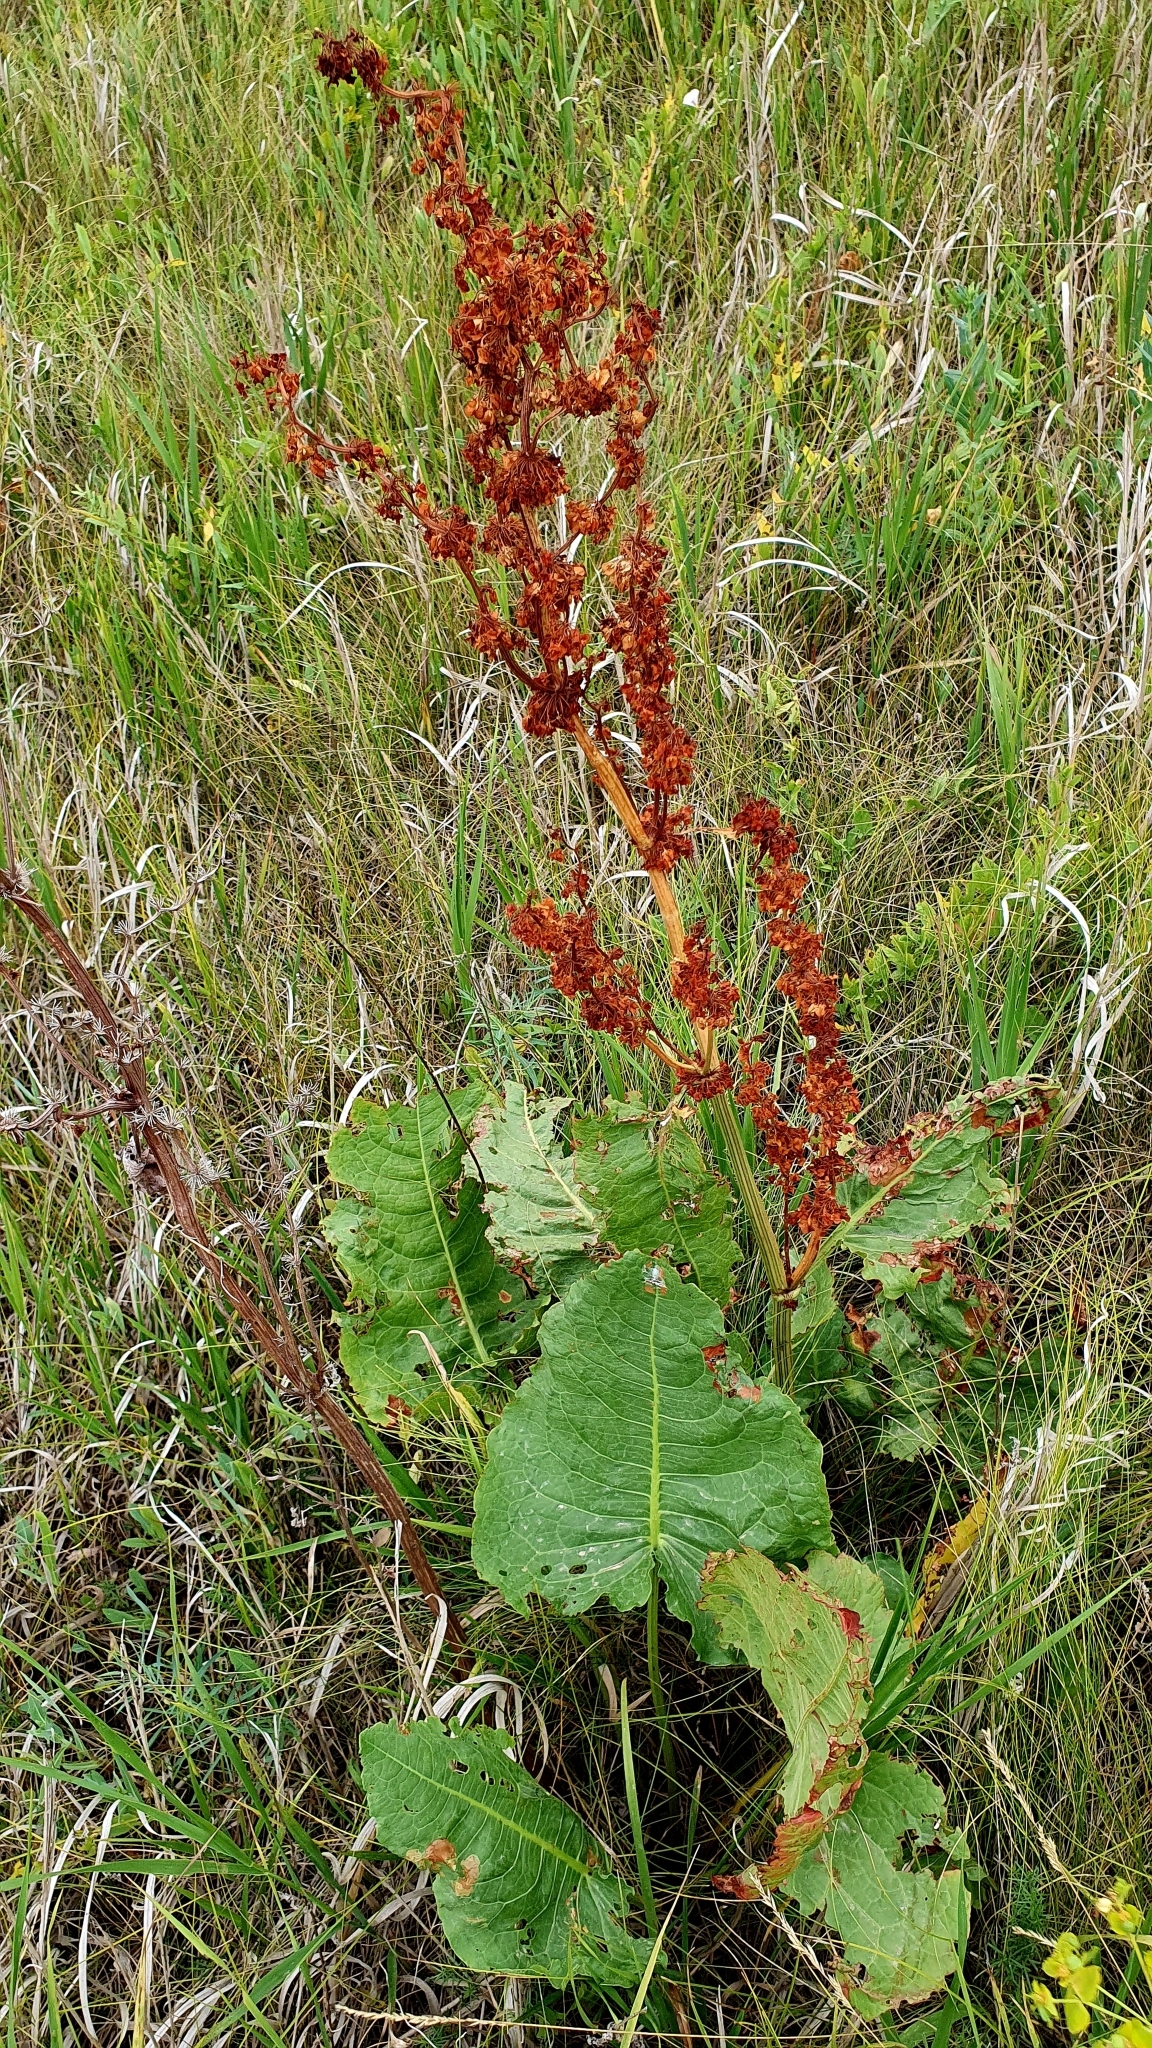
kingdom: Plantae
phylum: Tracheophyta
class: Magnoliopsida
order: Caryophyllales
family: Polygonaceae
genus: Rumex
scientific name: Rumex confertus
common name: Russian dock
